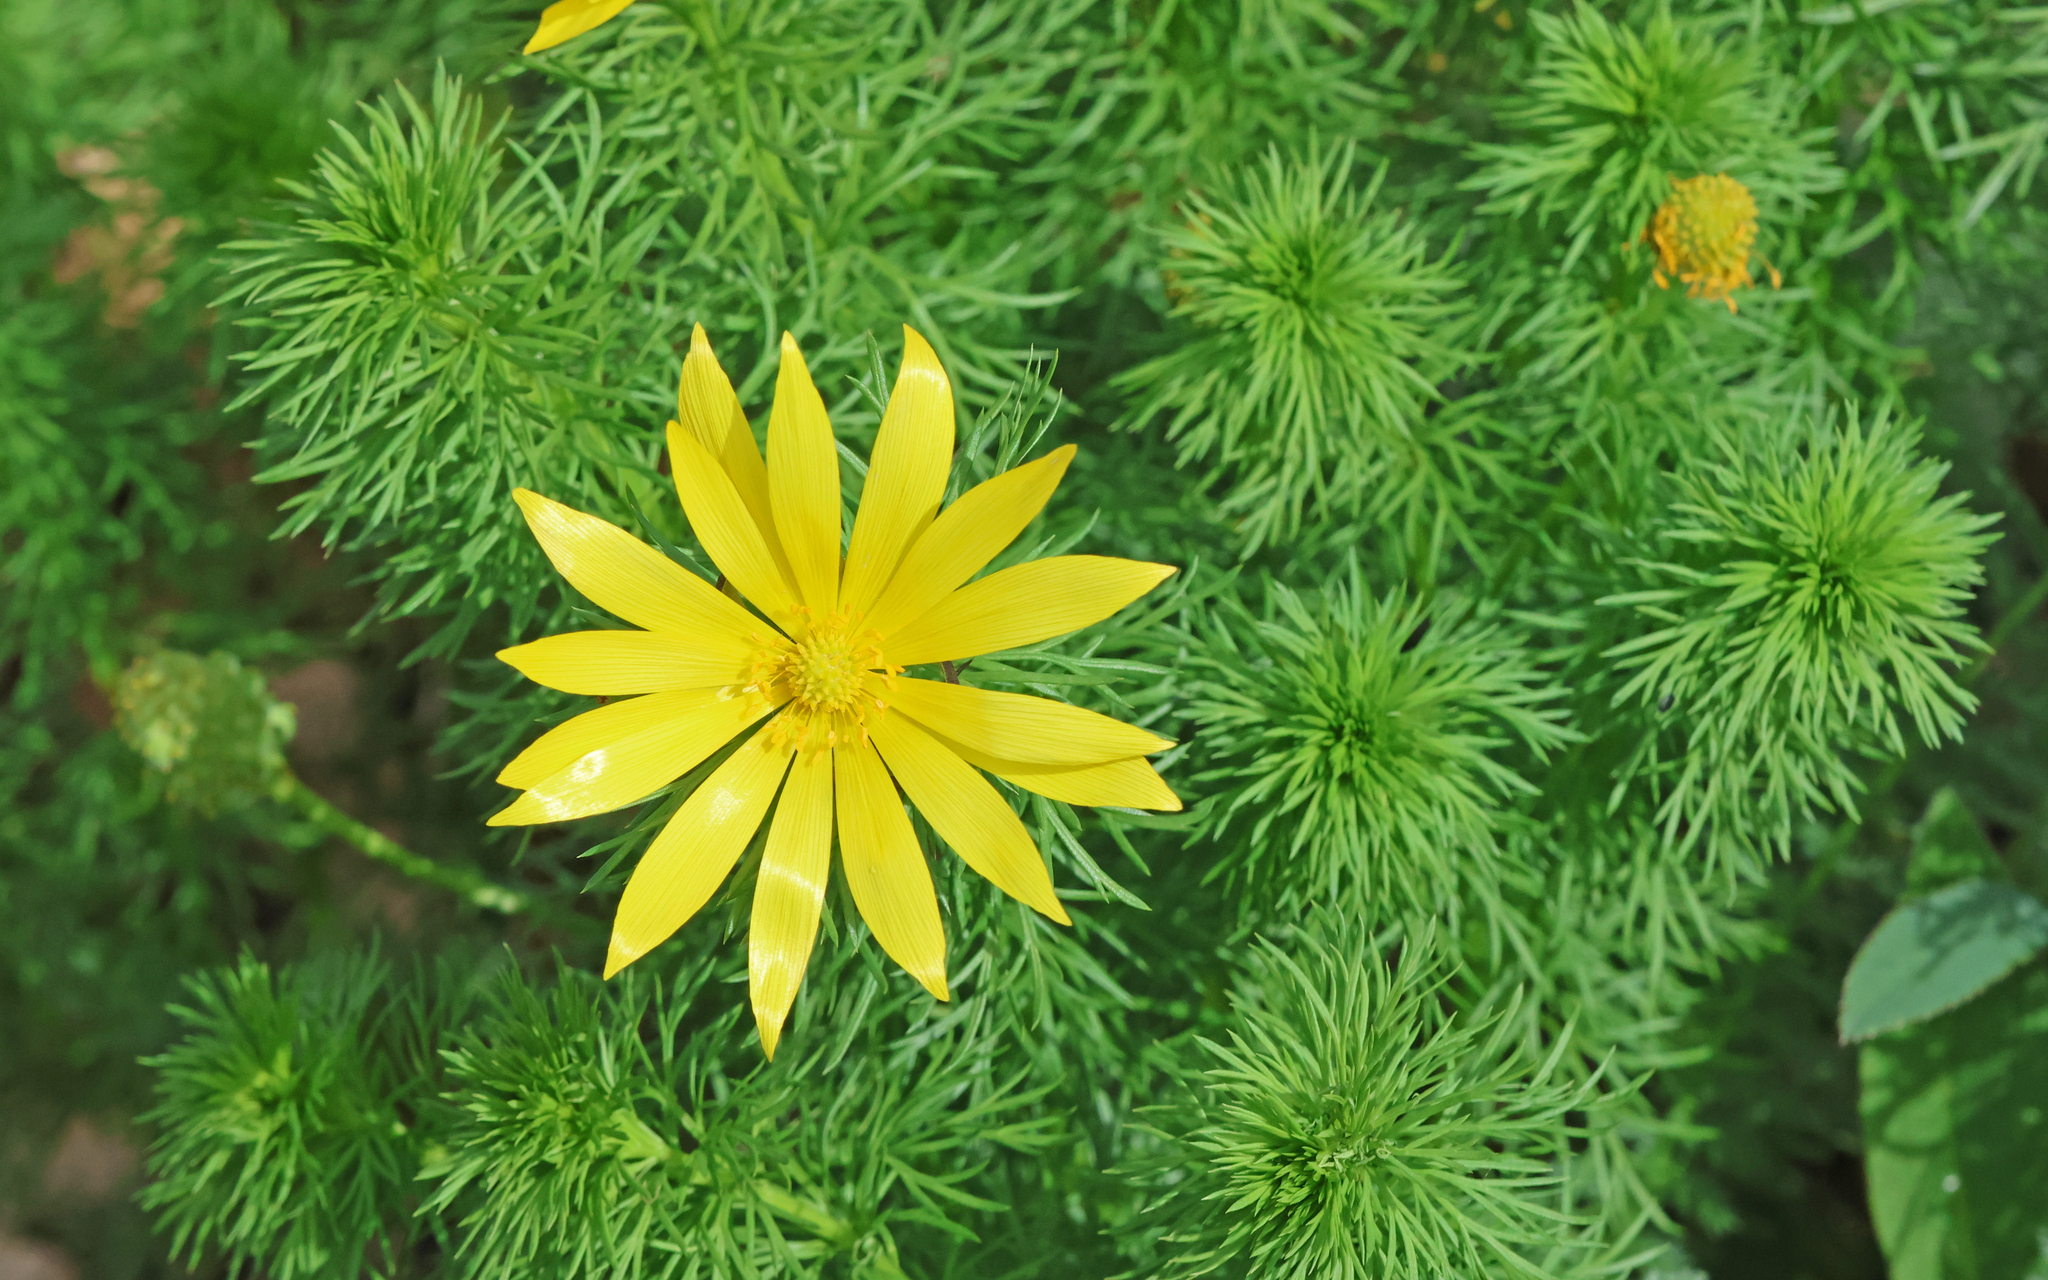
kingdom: Plantae
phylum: Tracheophyta
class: Magnoliopsida
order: Ranunculales
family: Ranunculaceae
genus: Adonis
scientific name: Adonis vernalis
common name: Yellow pheasants-eye
